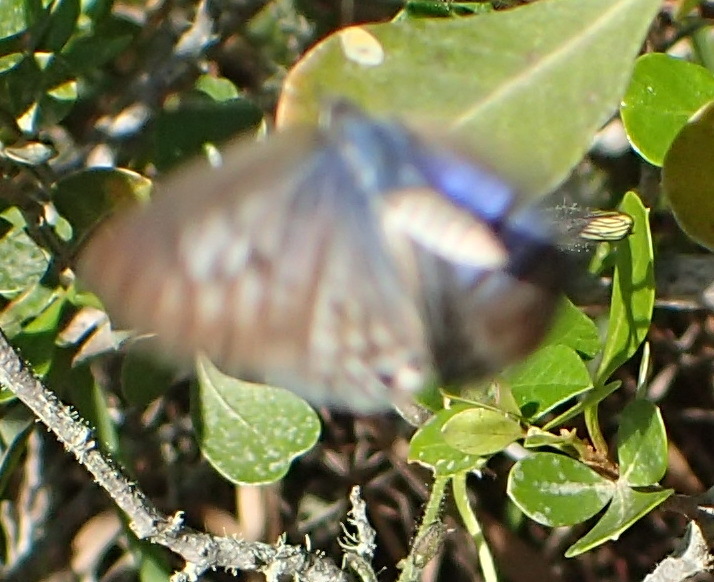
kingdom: Animalia
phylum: Arthropoda
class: Insecta
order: Lepidoptera
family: Lycaenidae
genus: Leptotes
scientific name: Leptotes
